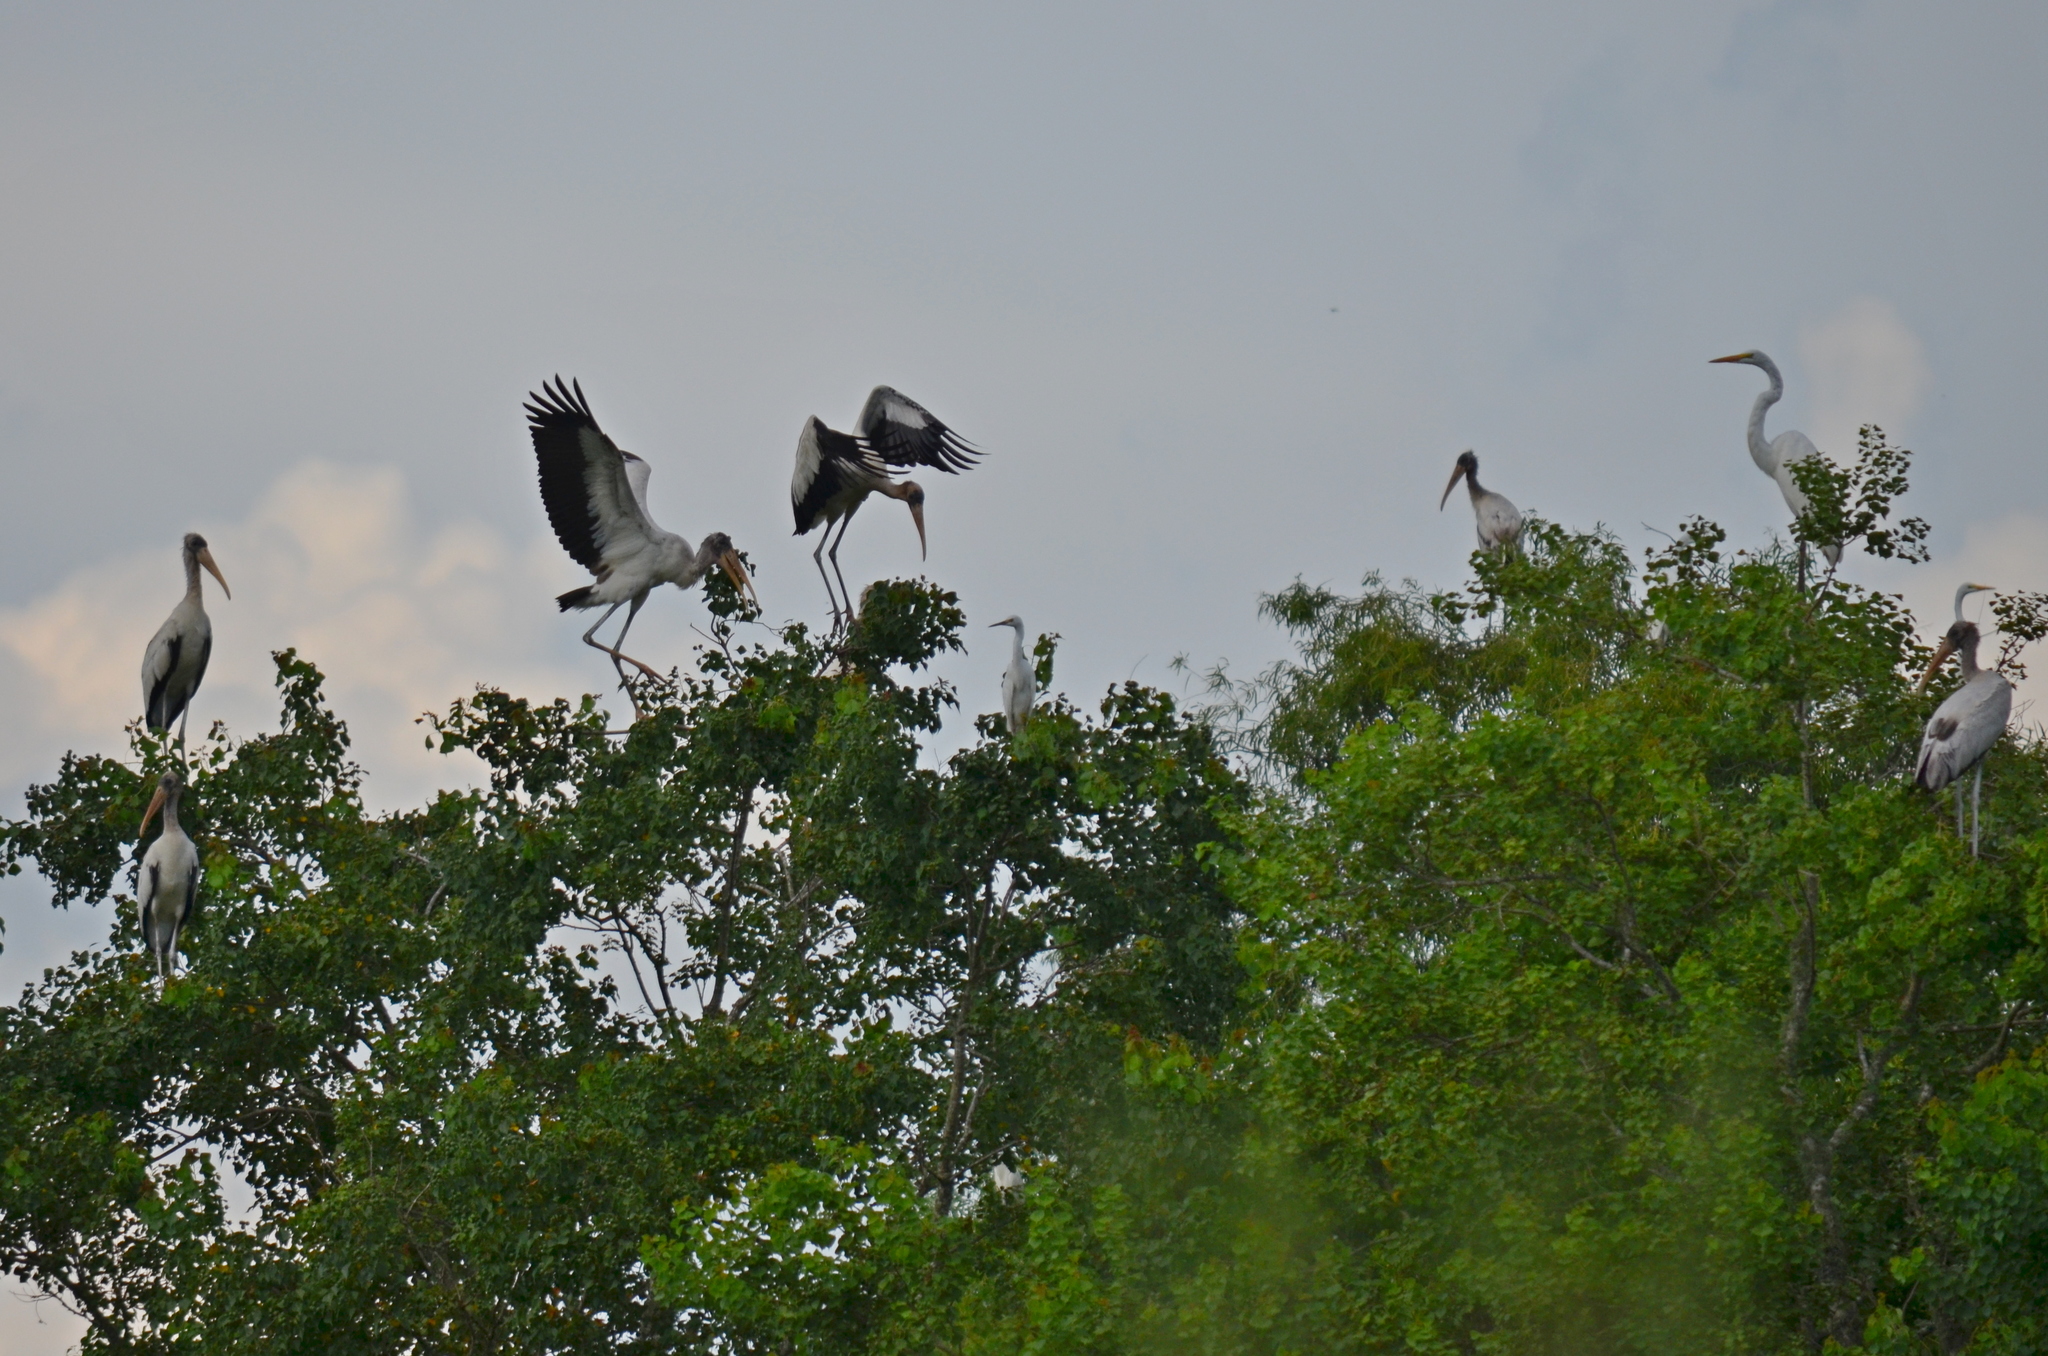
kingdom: Animalia
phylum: Chordata
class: Aves
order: Ciconiiformes
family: Ciconiidae
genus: Mycteria
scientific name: Mycteria americana
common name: Wood stork
